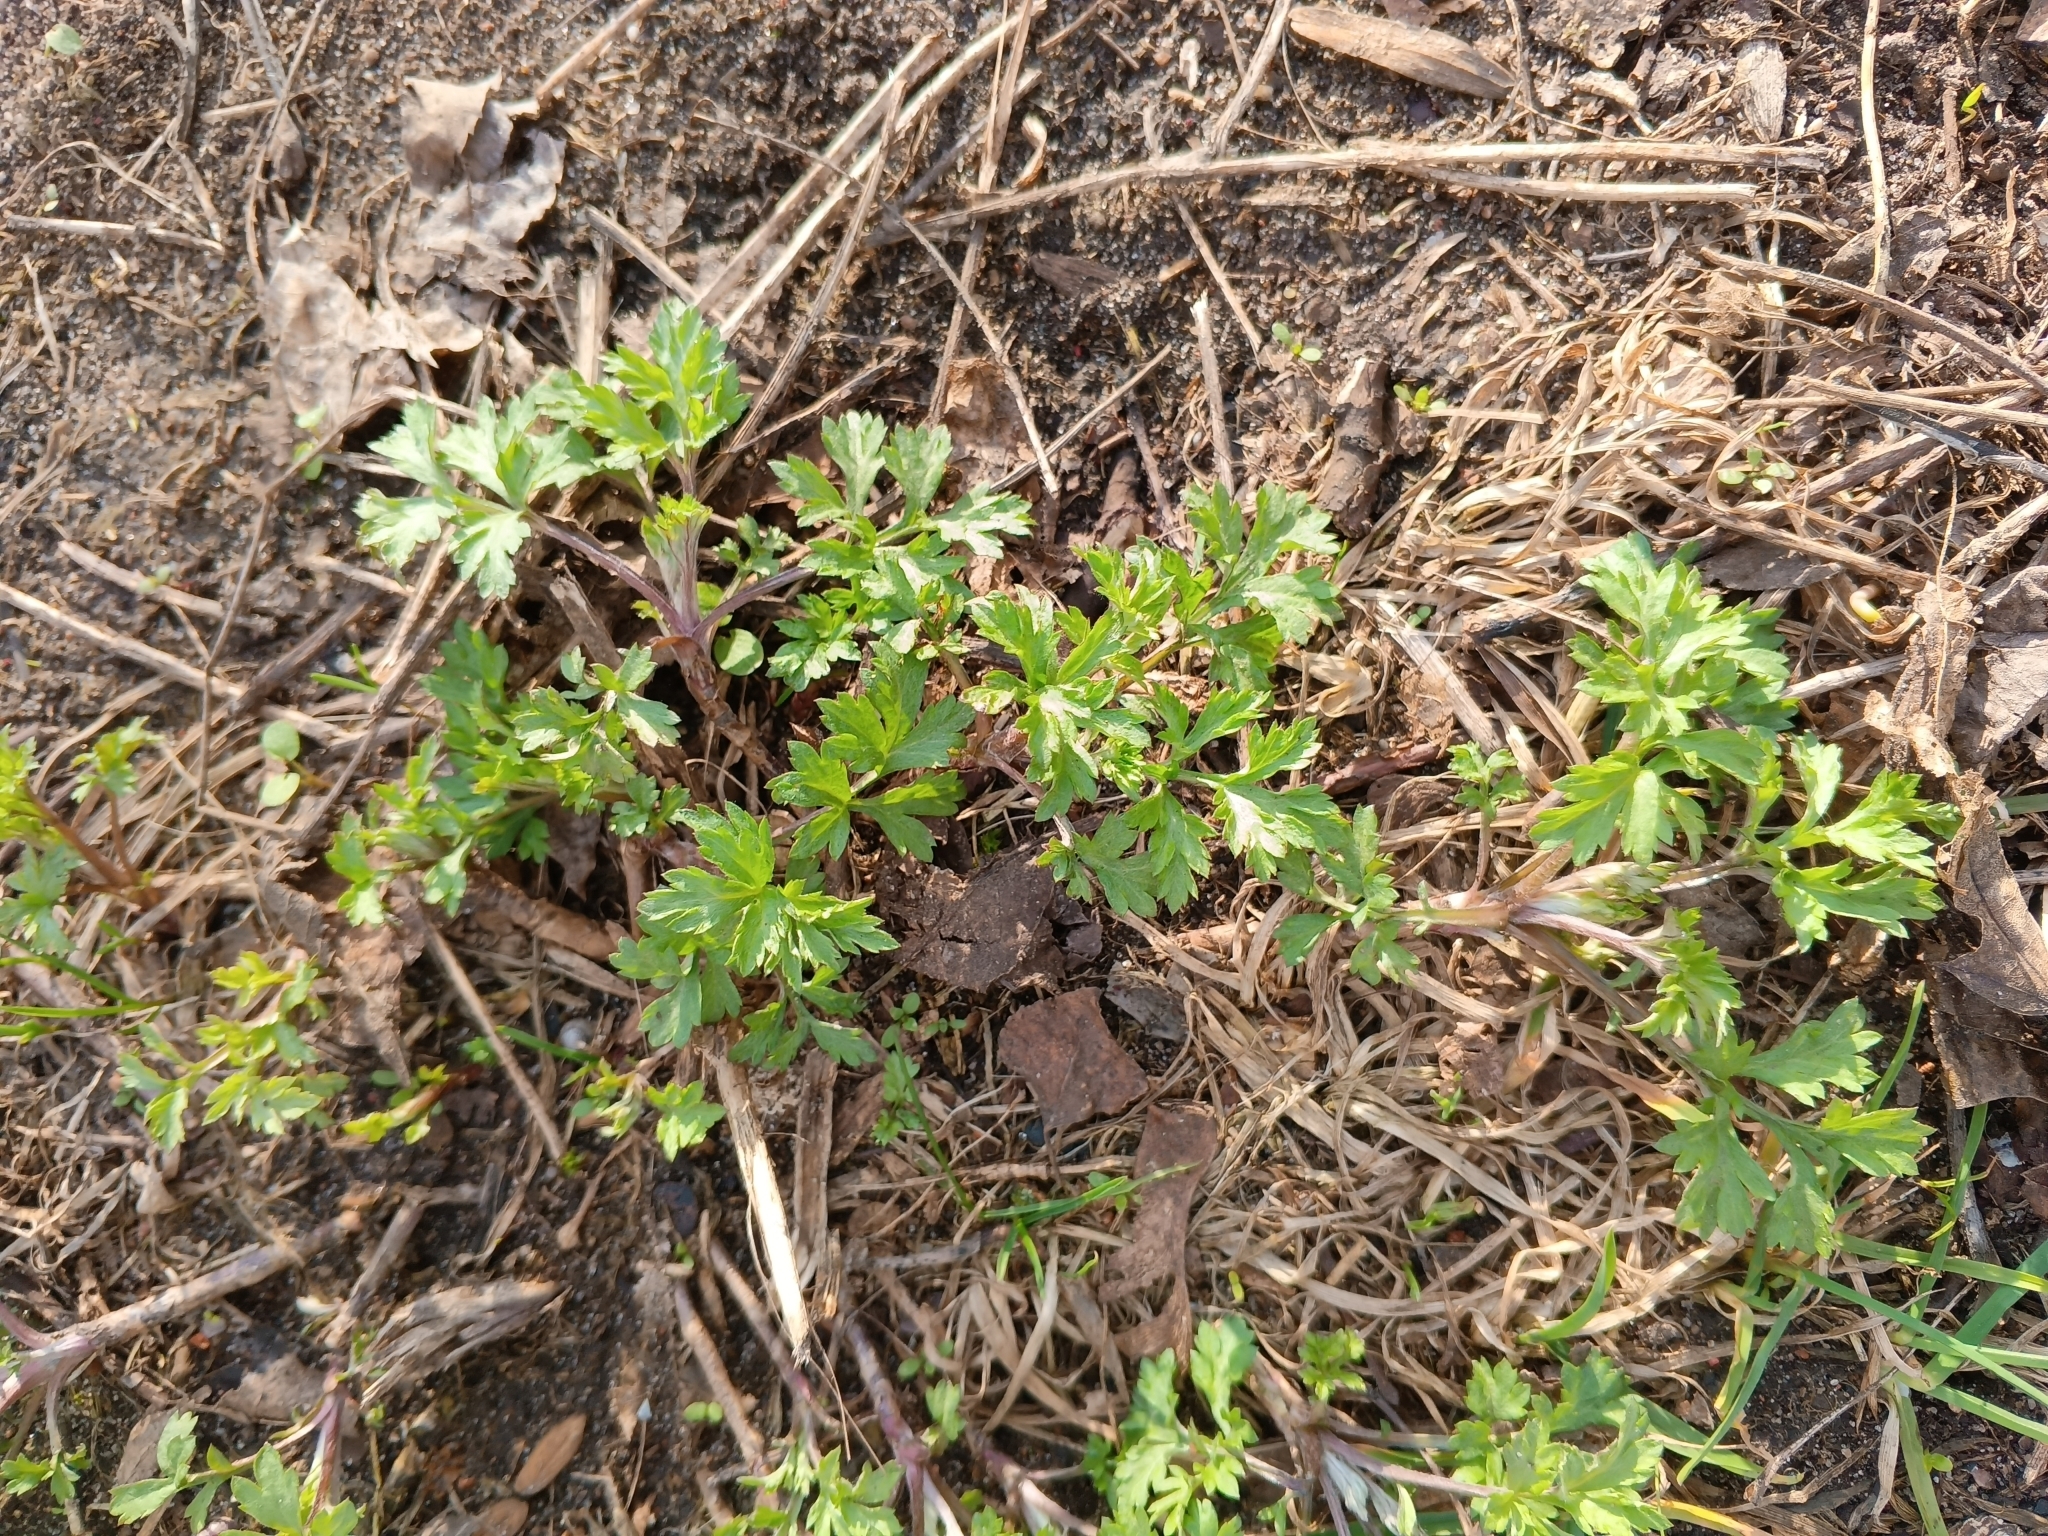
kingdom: Plantae
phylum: Tracheophyta
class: Magnoliopsida
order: Asterales
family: Asteraceae
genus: Artemisia
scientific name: Artemisia vulgaris
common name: Mugwort
